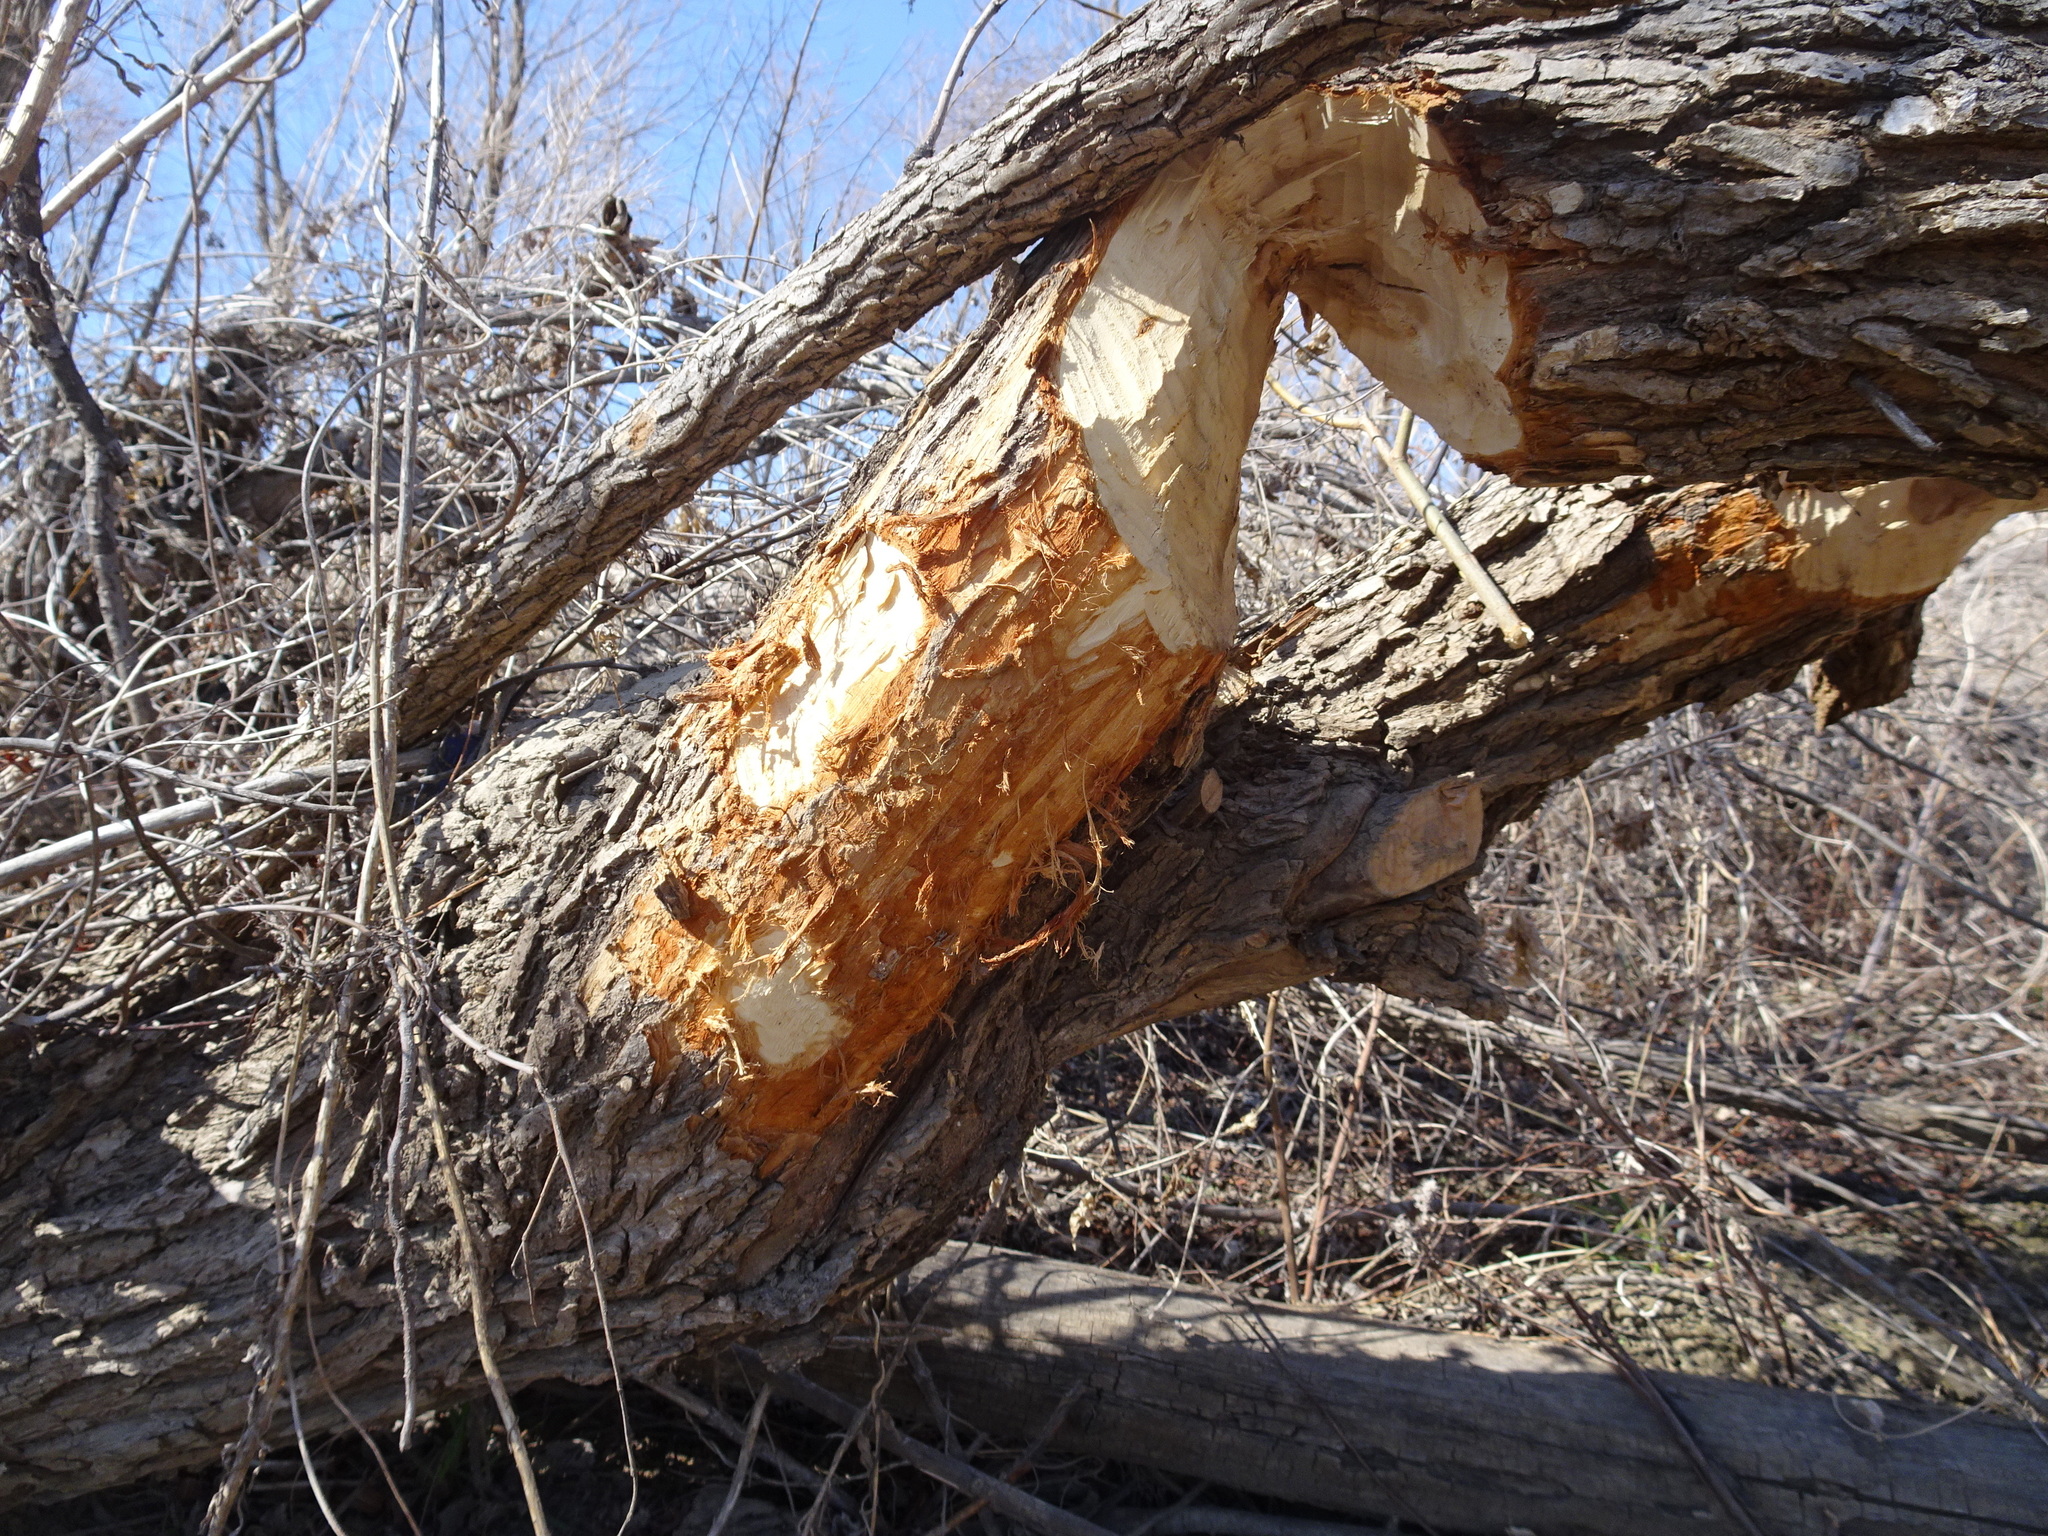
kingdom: Animalia
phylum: Chordata
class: Mammalia
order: Rodentia
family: Castoridae
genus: Castor
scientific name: Castor canadensis
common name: American beaver
